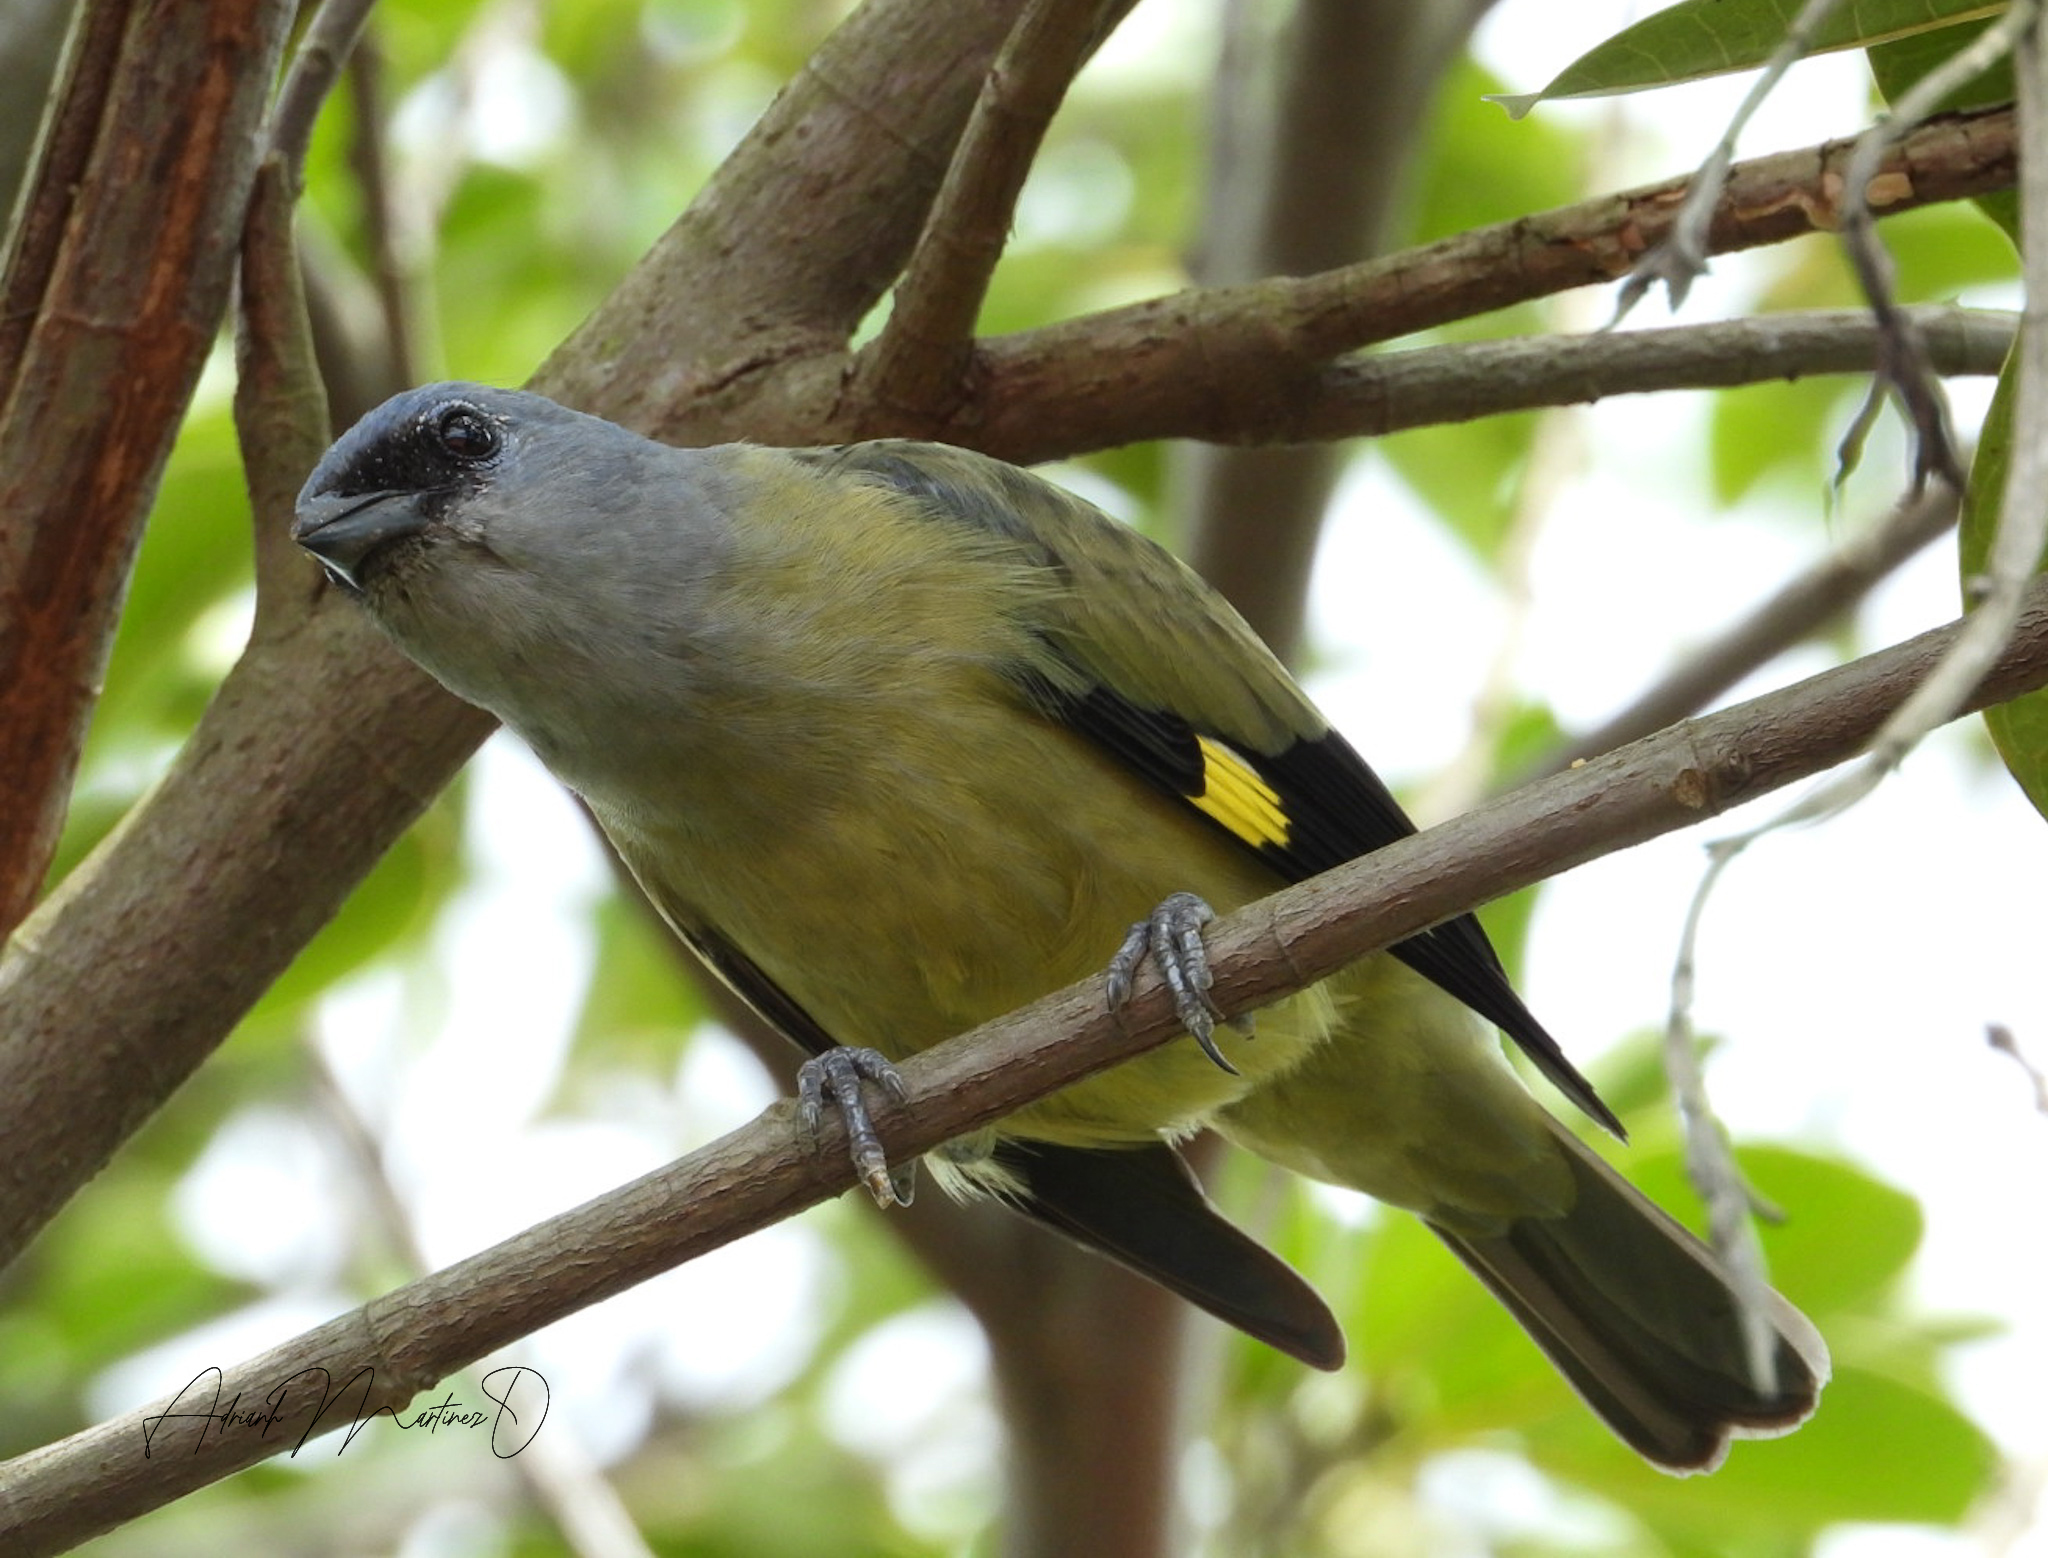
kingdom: Animalia
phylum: Chordata
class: Aves
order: Passeriformes
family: Thraupidae
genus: Thraupis
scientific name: Thraupis abbas
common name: Yellow-winged tanager
